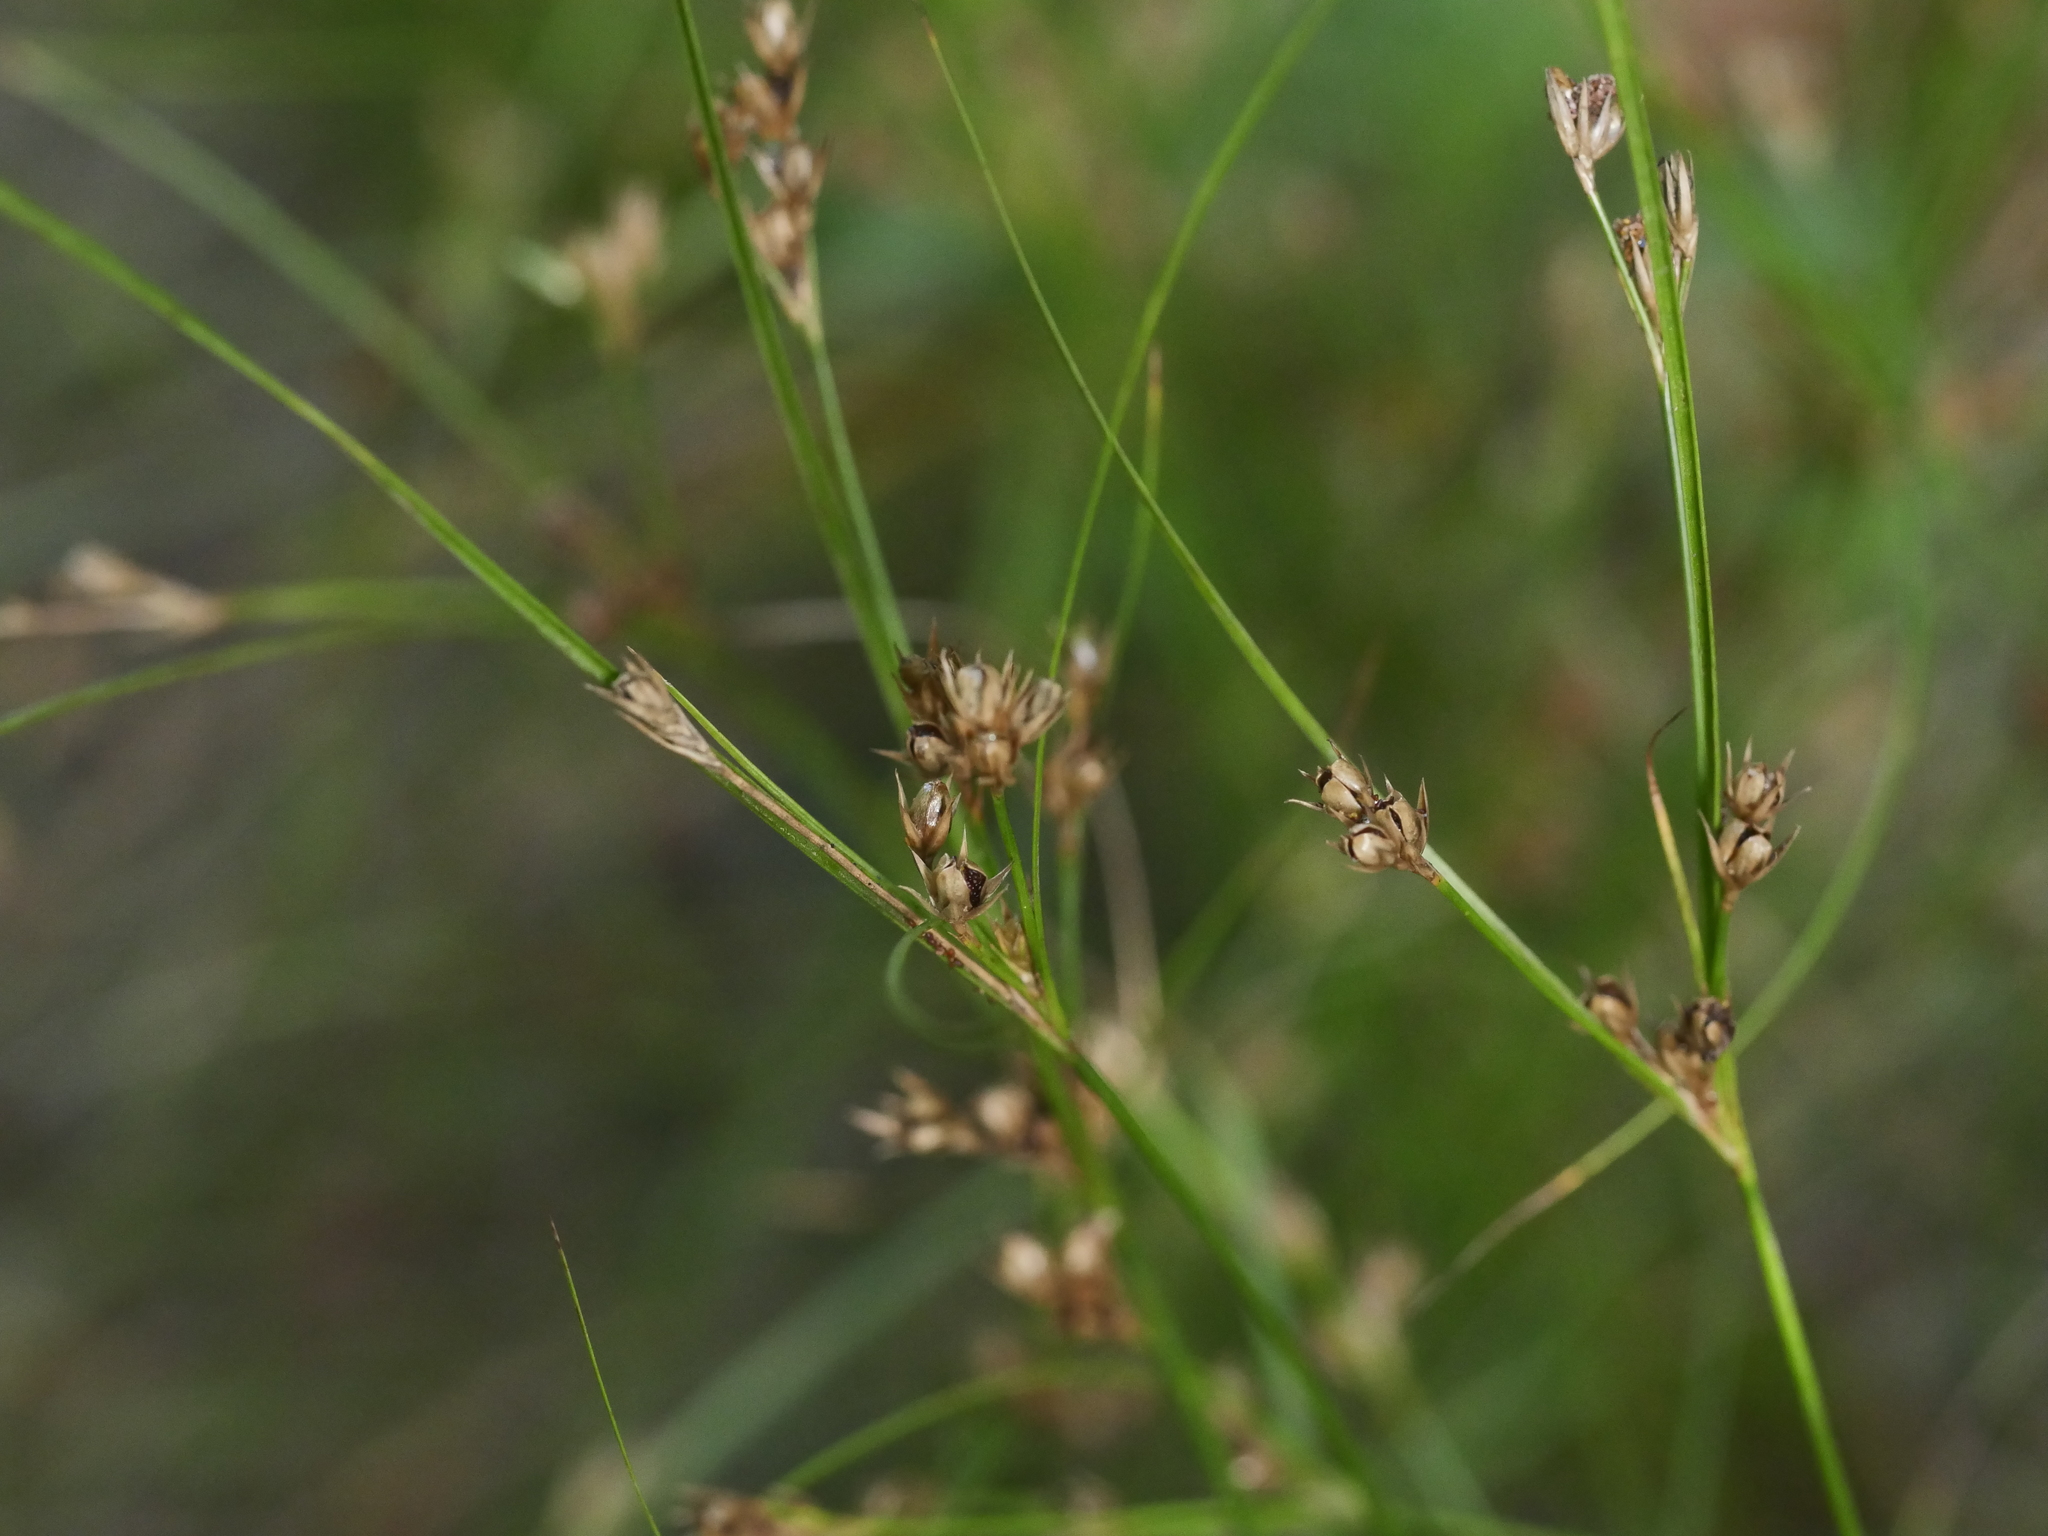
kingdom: Plantae
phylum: Tracheophyta
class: Liliopsida
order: Poales
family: Juncaceae
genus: Juncus
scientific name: Juncus tenuis
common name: Slender rush
